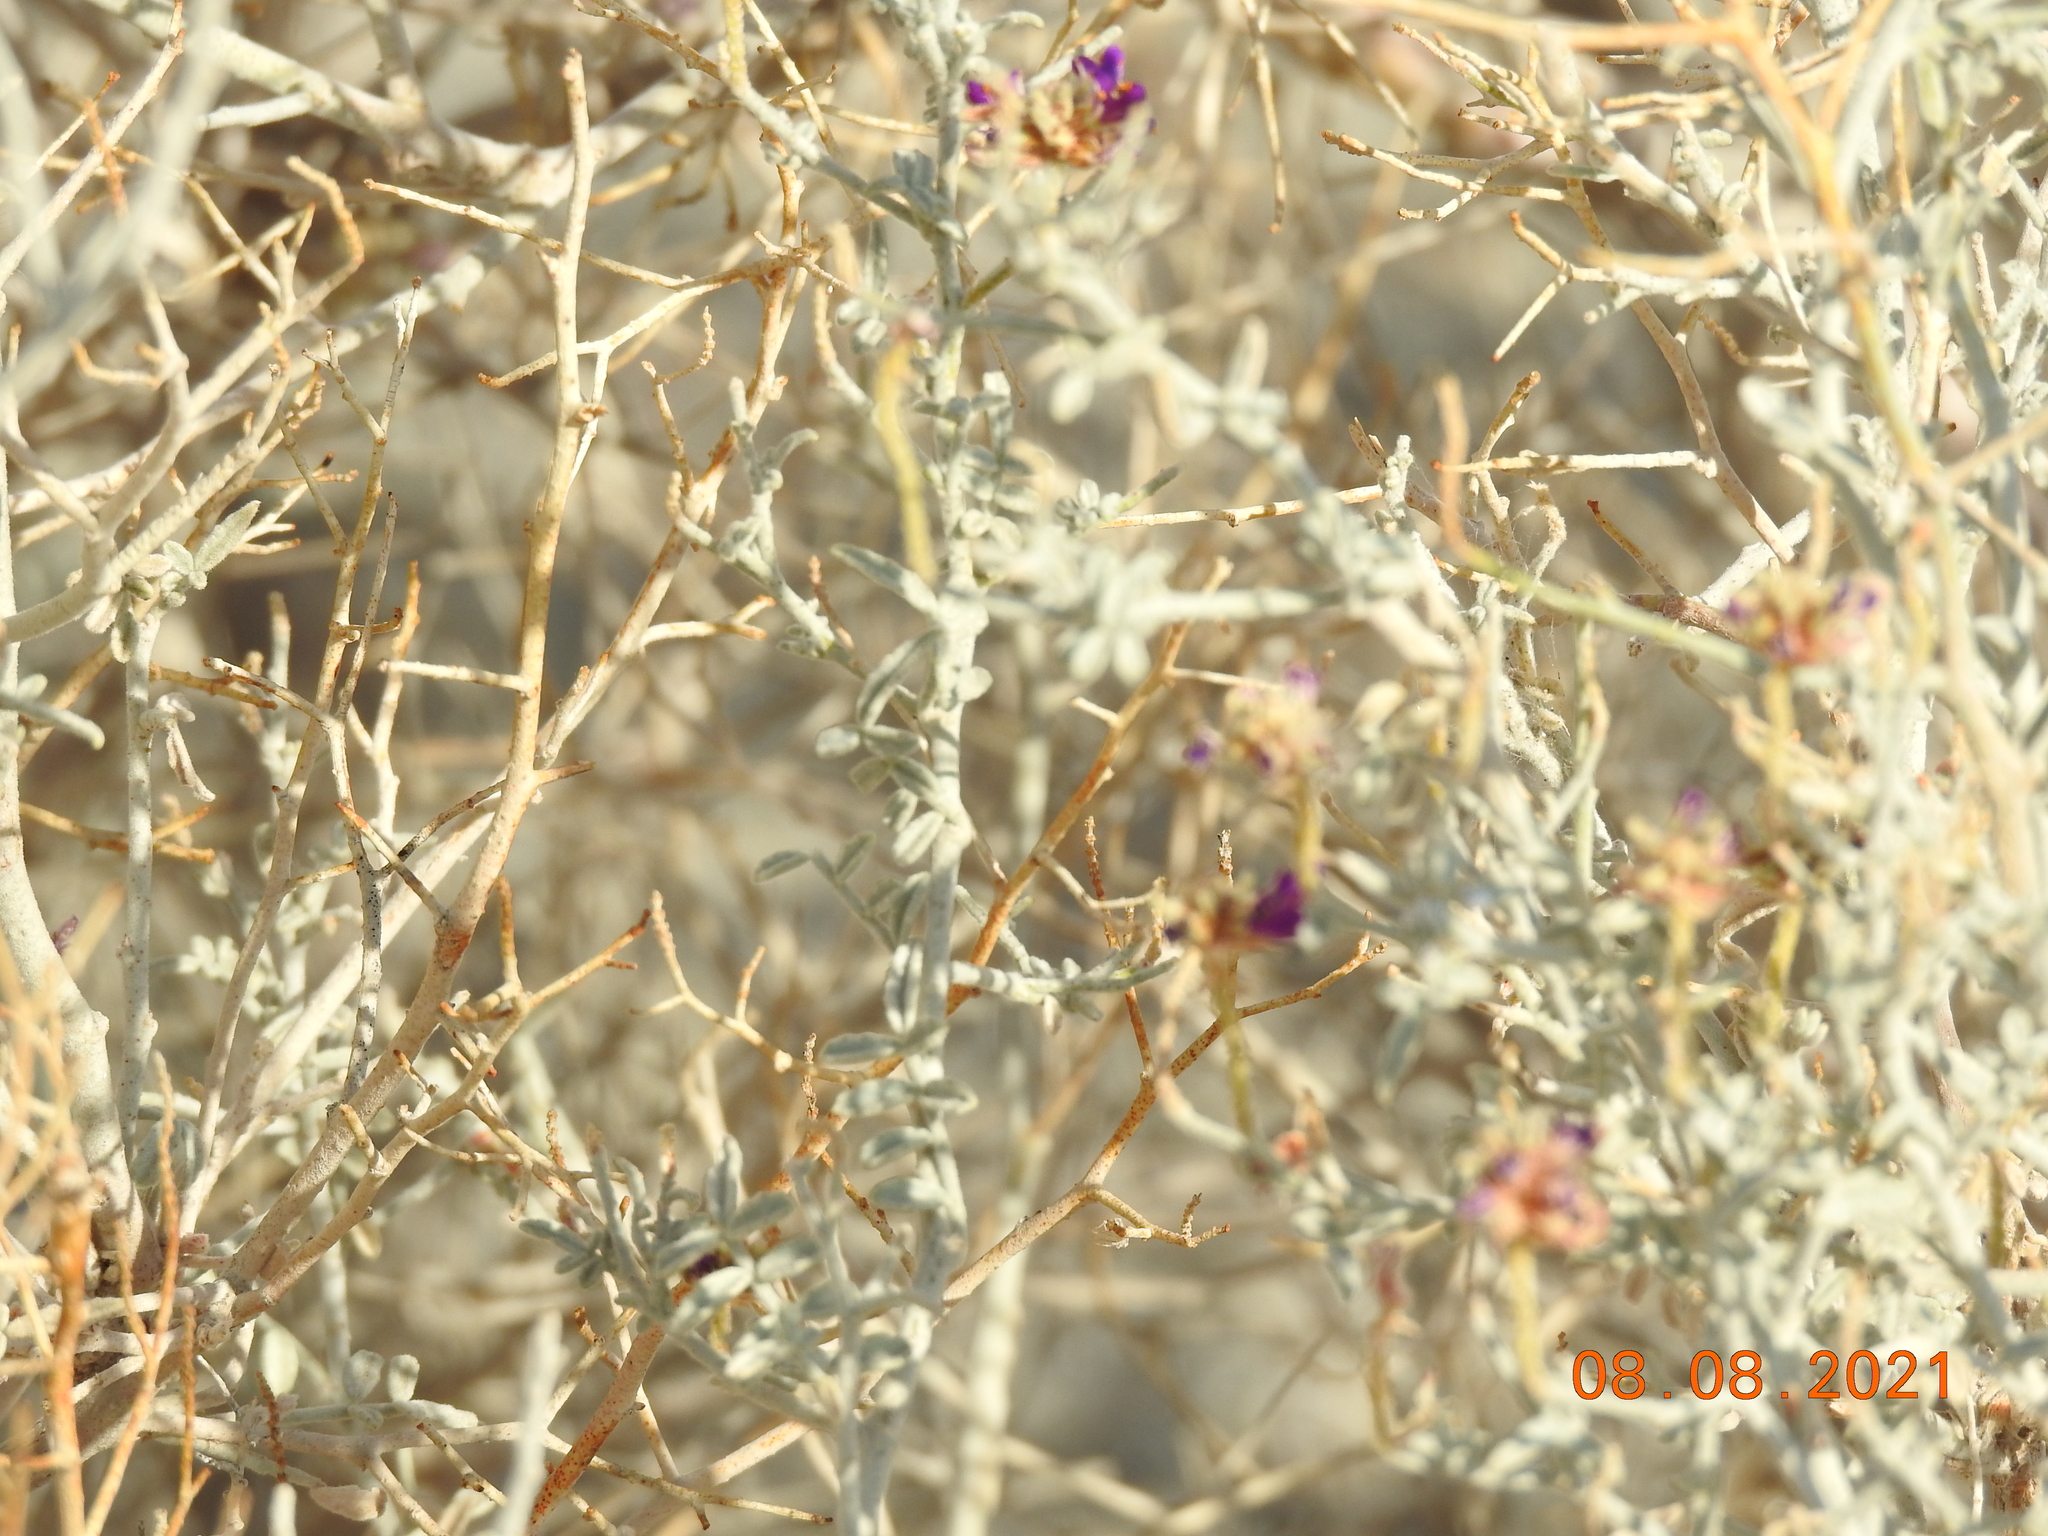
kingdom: Plantae
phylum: Tracheophyta
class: Magnoliopsida
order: Fabales
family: Fabaceae
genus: Psorothamnus
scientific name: Psorothamnus emoryi
